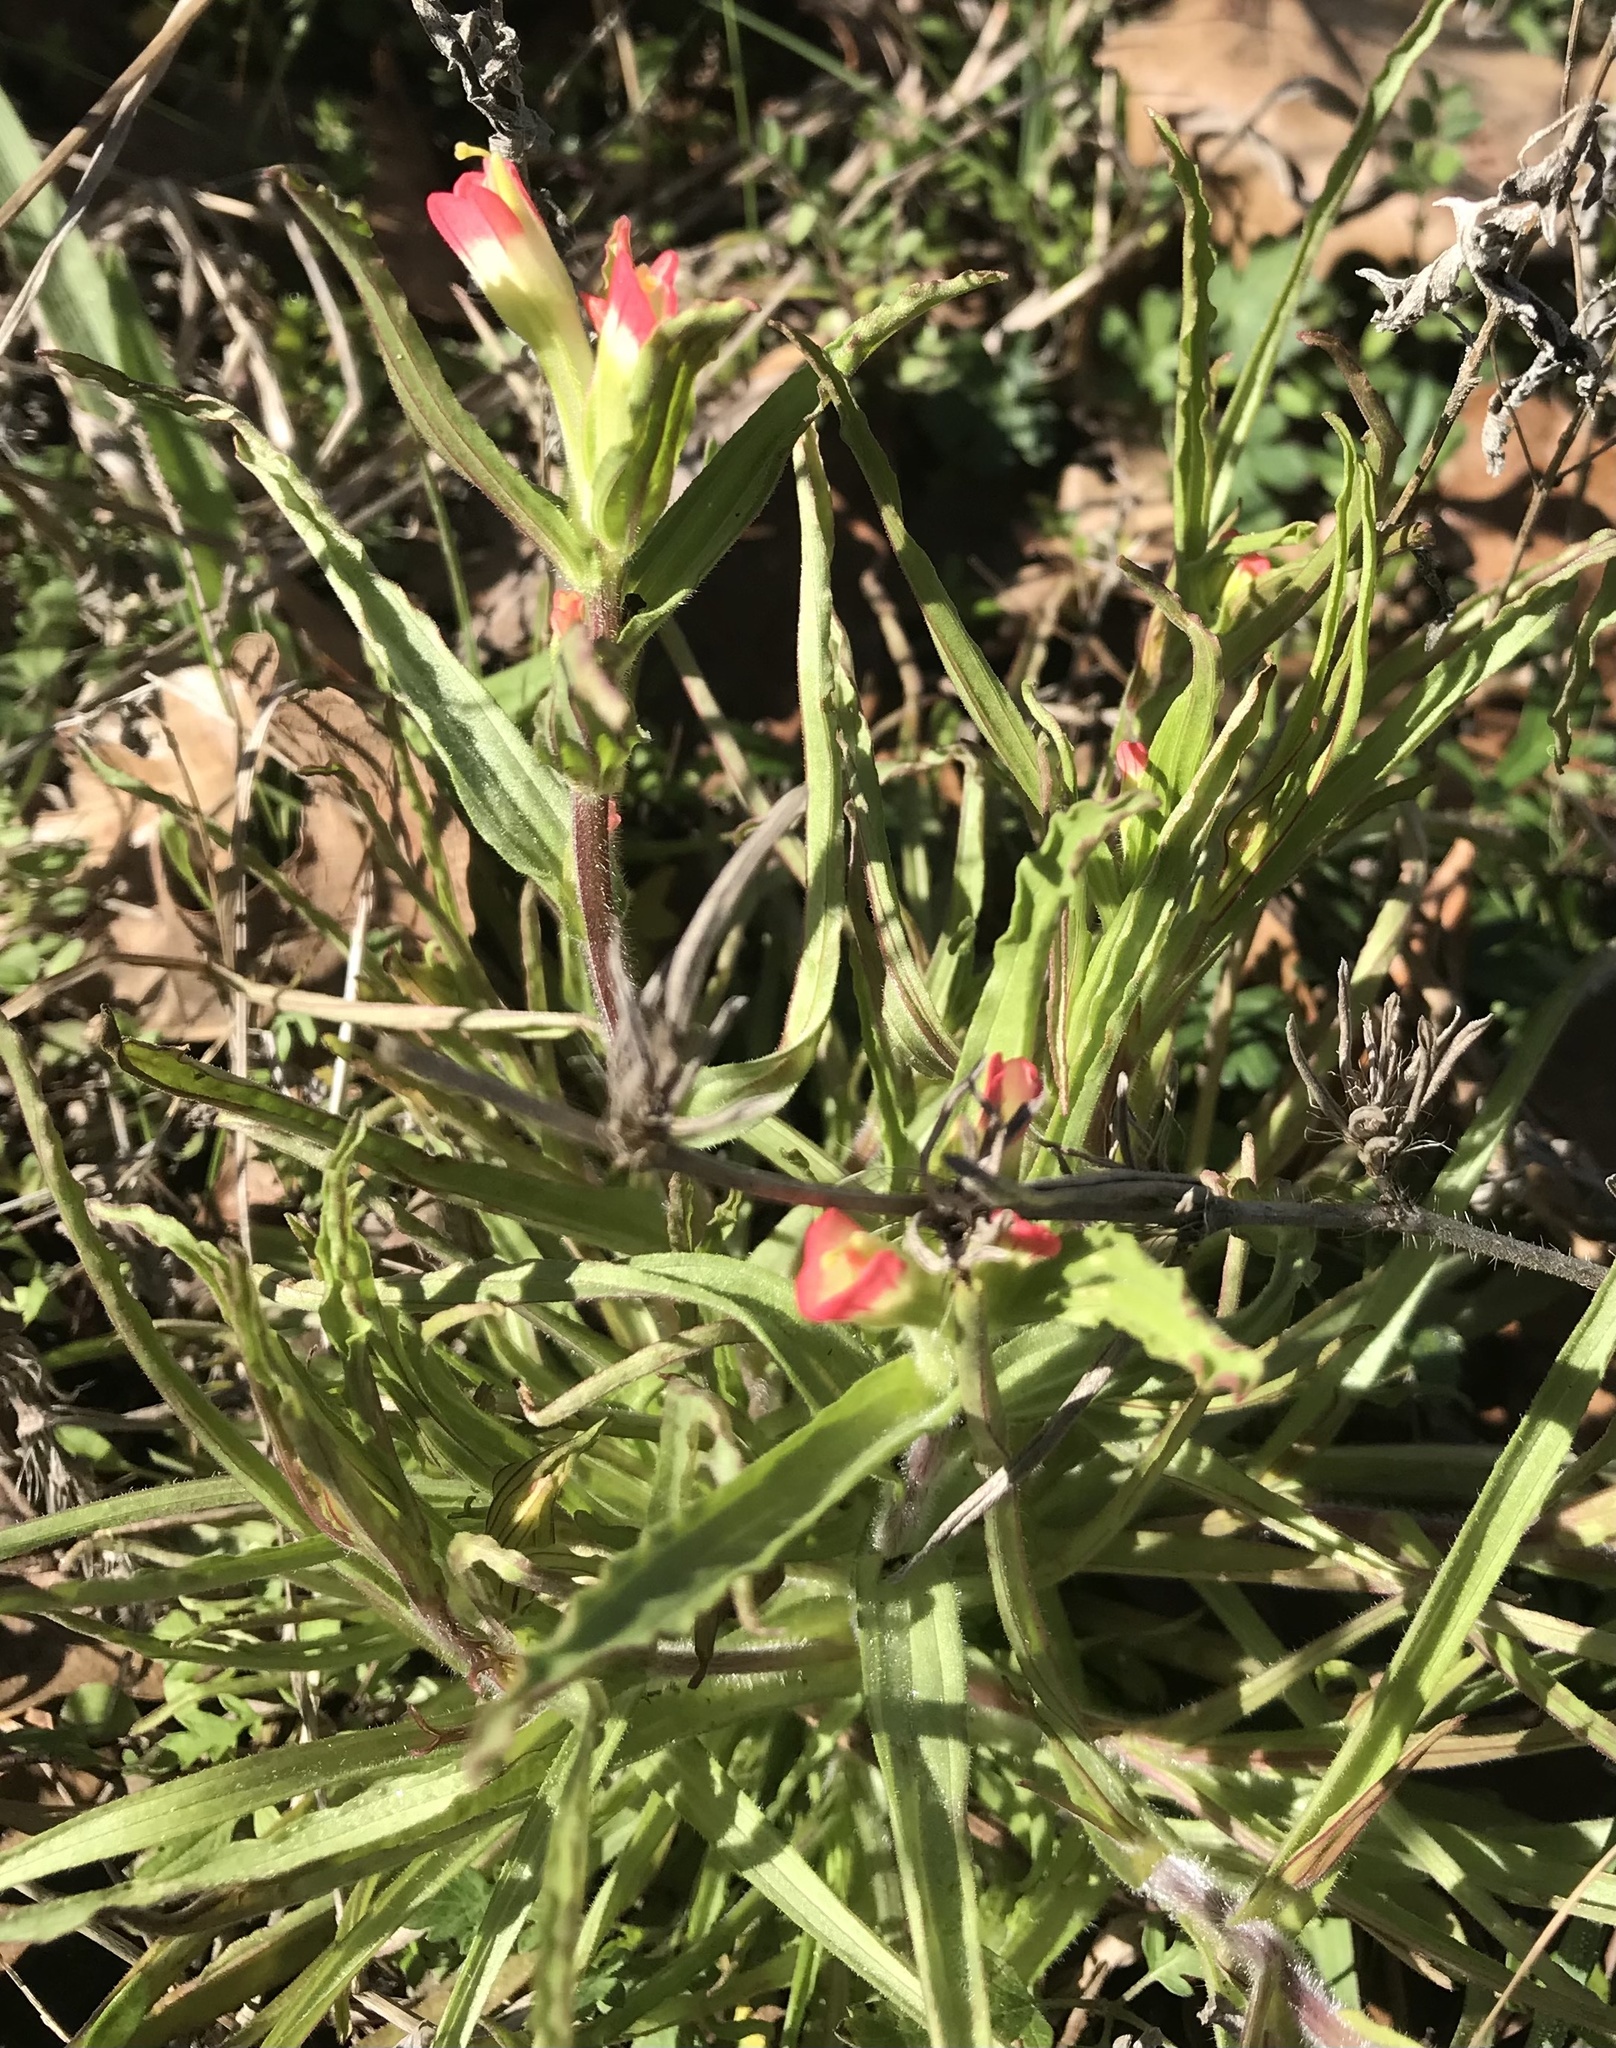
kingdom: Plantae
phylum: Tracheophyta
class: Magnoliopsida
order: Lamiales
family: Orobanchaceae
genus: Castilleja
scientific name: Castilleja indivisa
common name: Texas paintbrush
